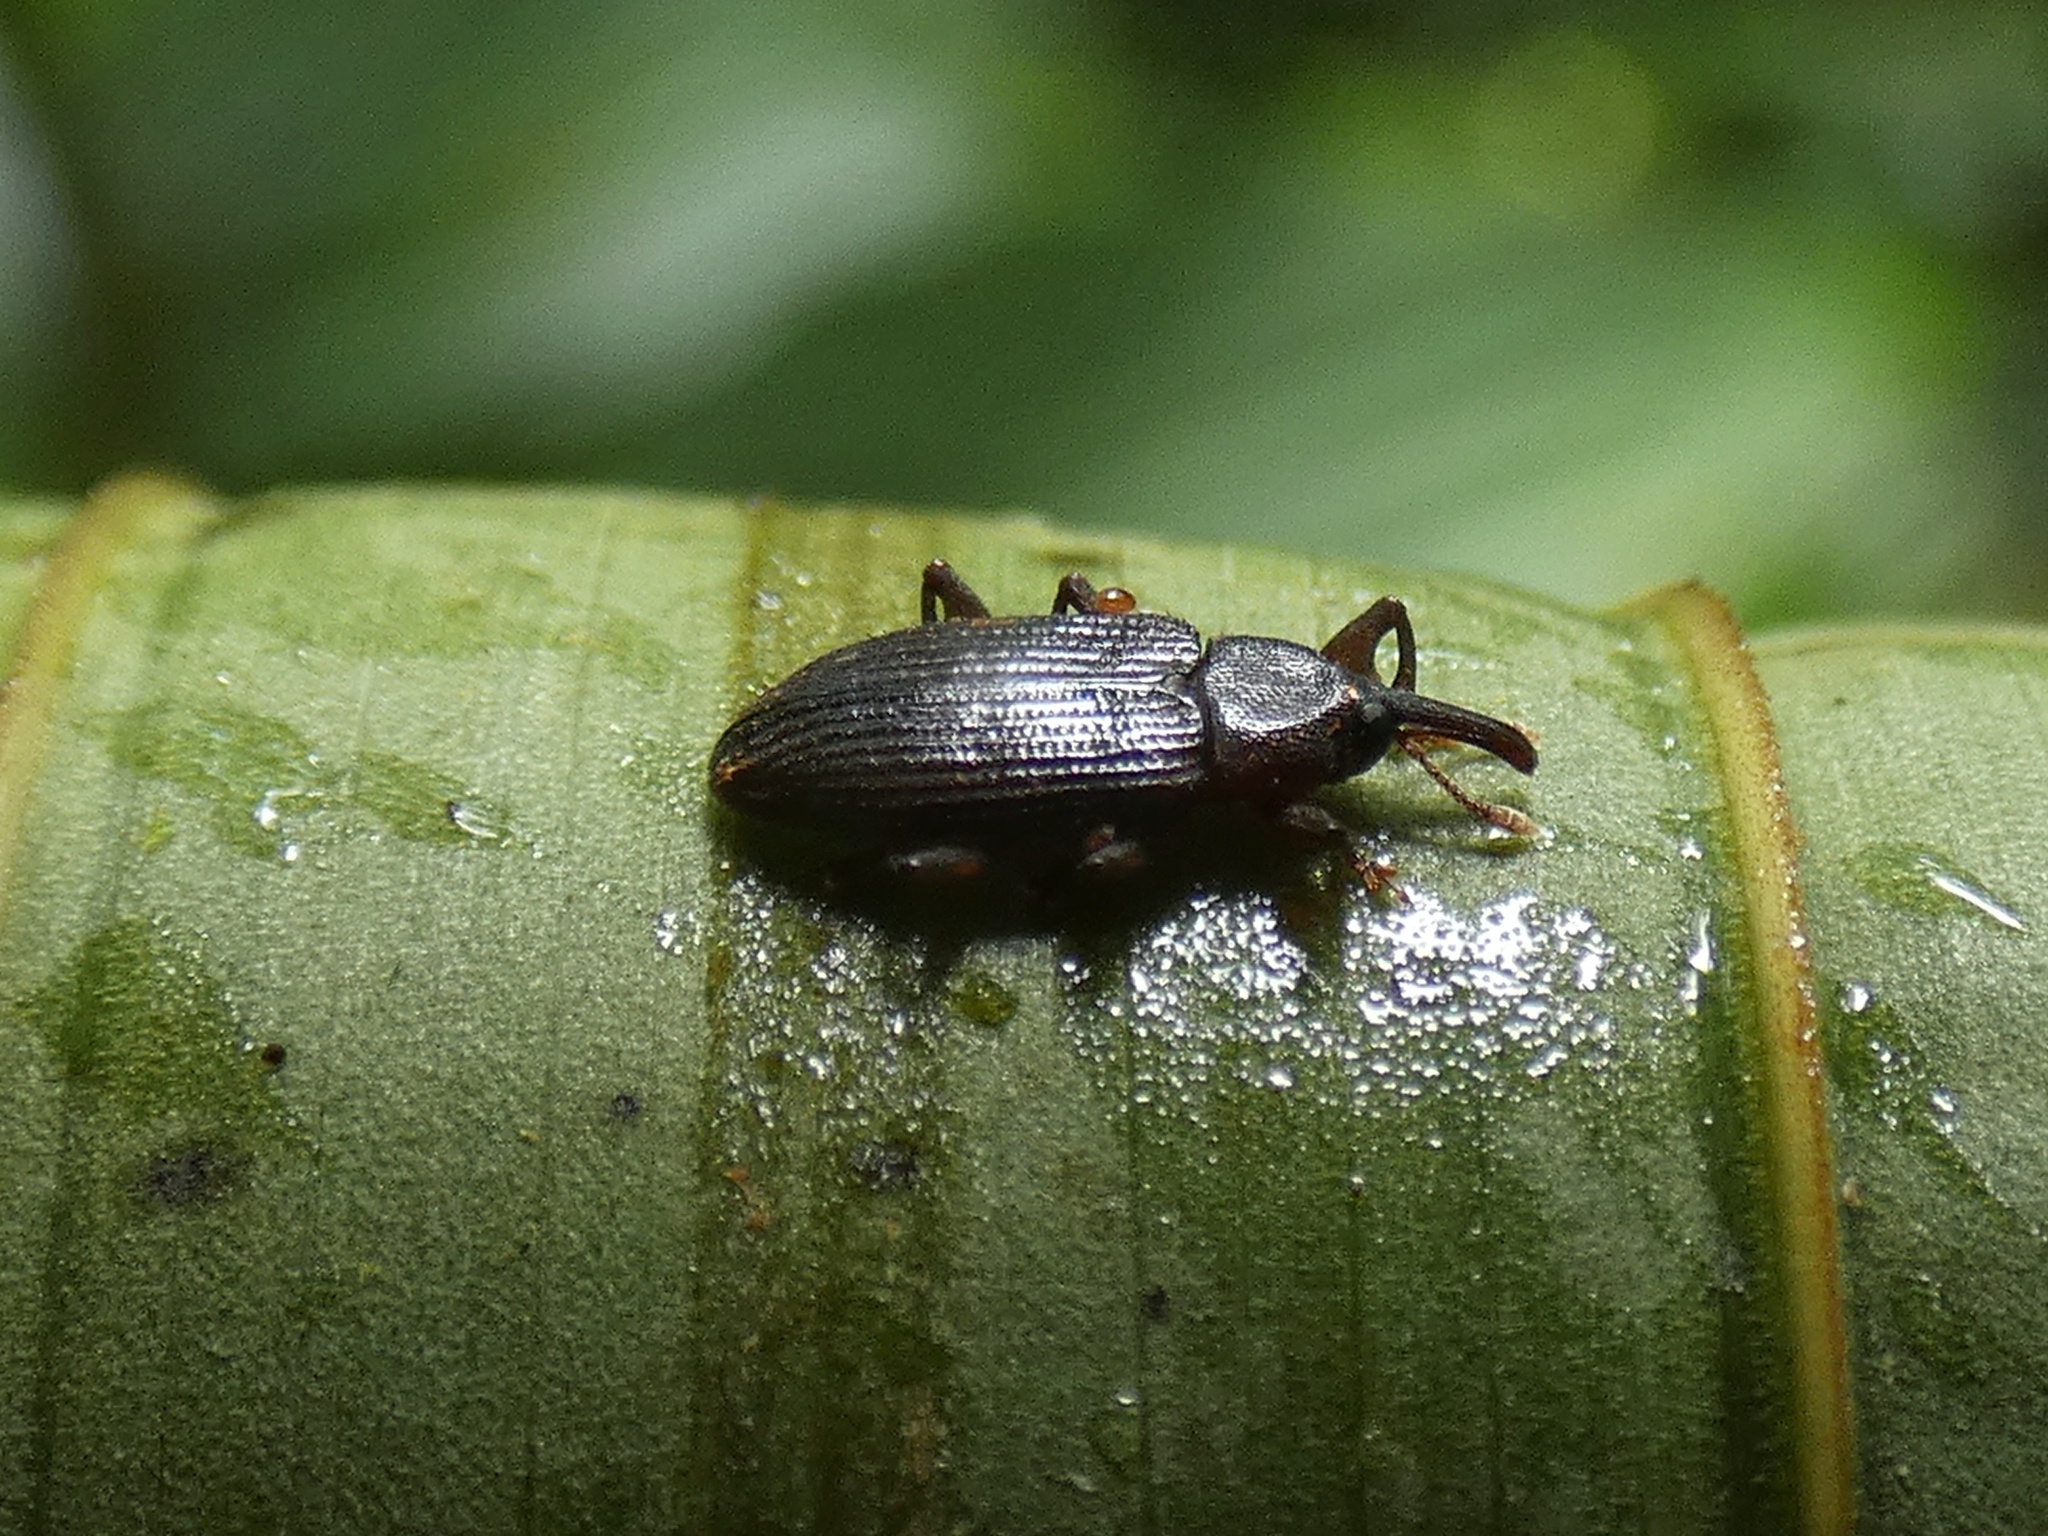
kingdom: Animalia
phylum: Arthropoda
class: Insecta
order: Coleoptera
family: Curculionidae
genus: Nanus
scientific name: Nanus hispidus
